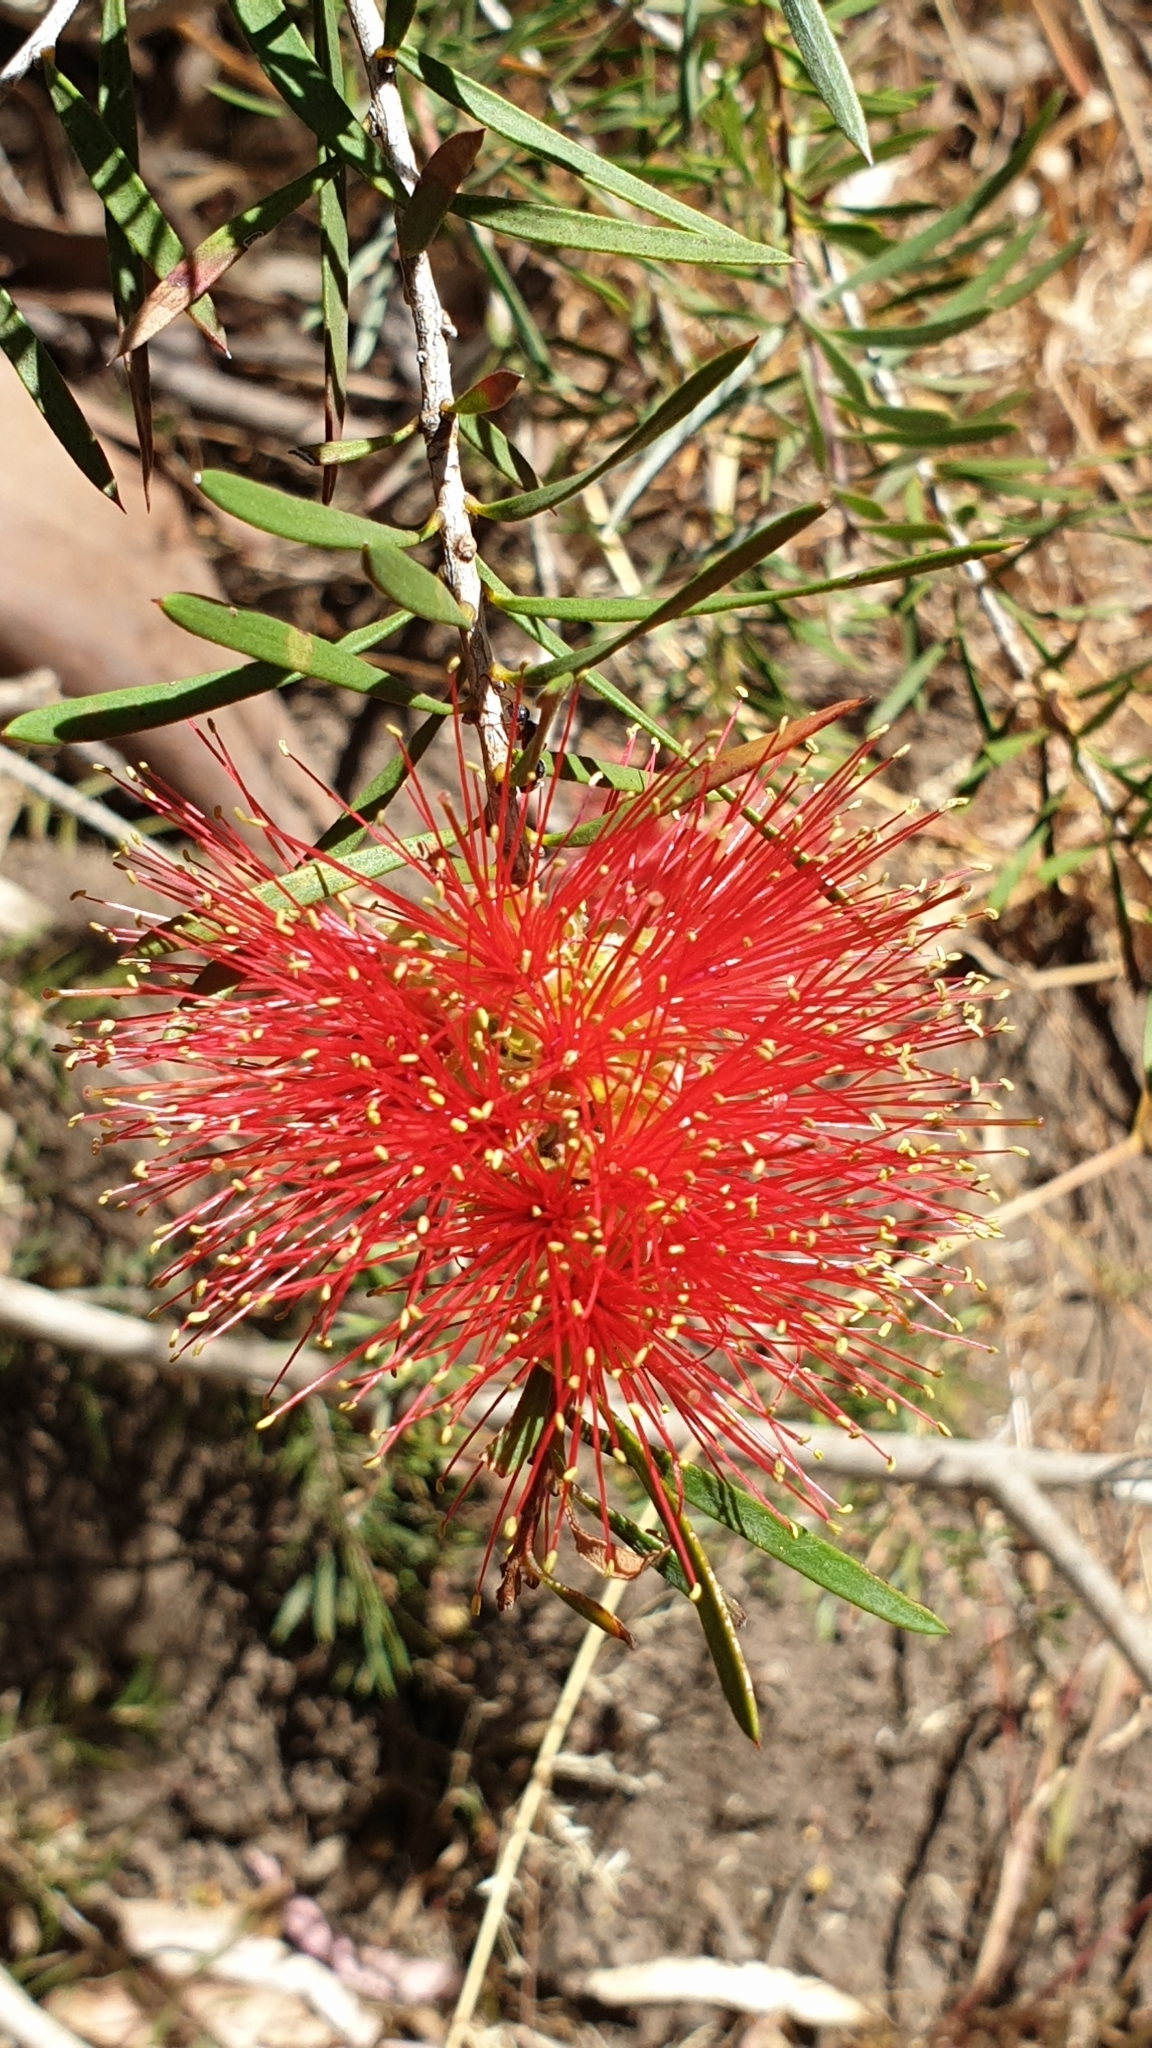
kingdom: Plantae
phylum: Tracheophyta
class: Magnoliopsida
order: Myrtales
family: Myrtaceae
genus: Callistemon
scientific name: Callistemon rugulosus
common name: Scarlet bottlebrush
